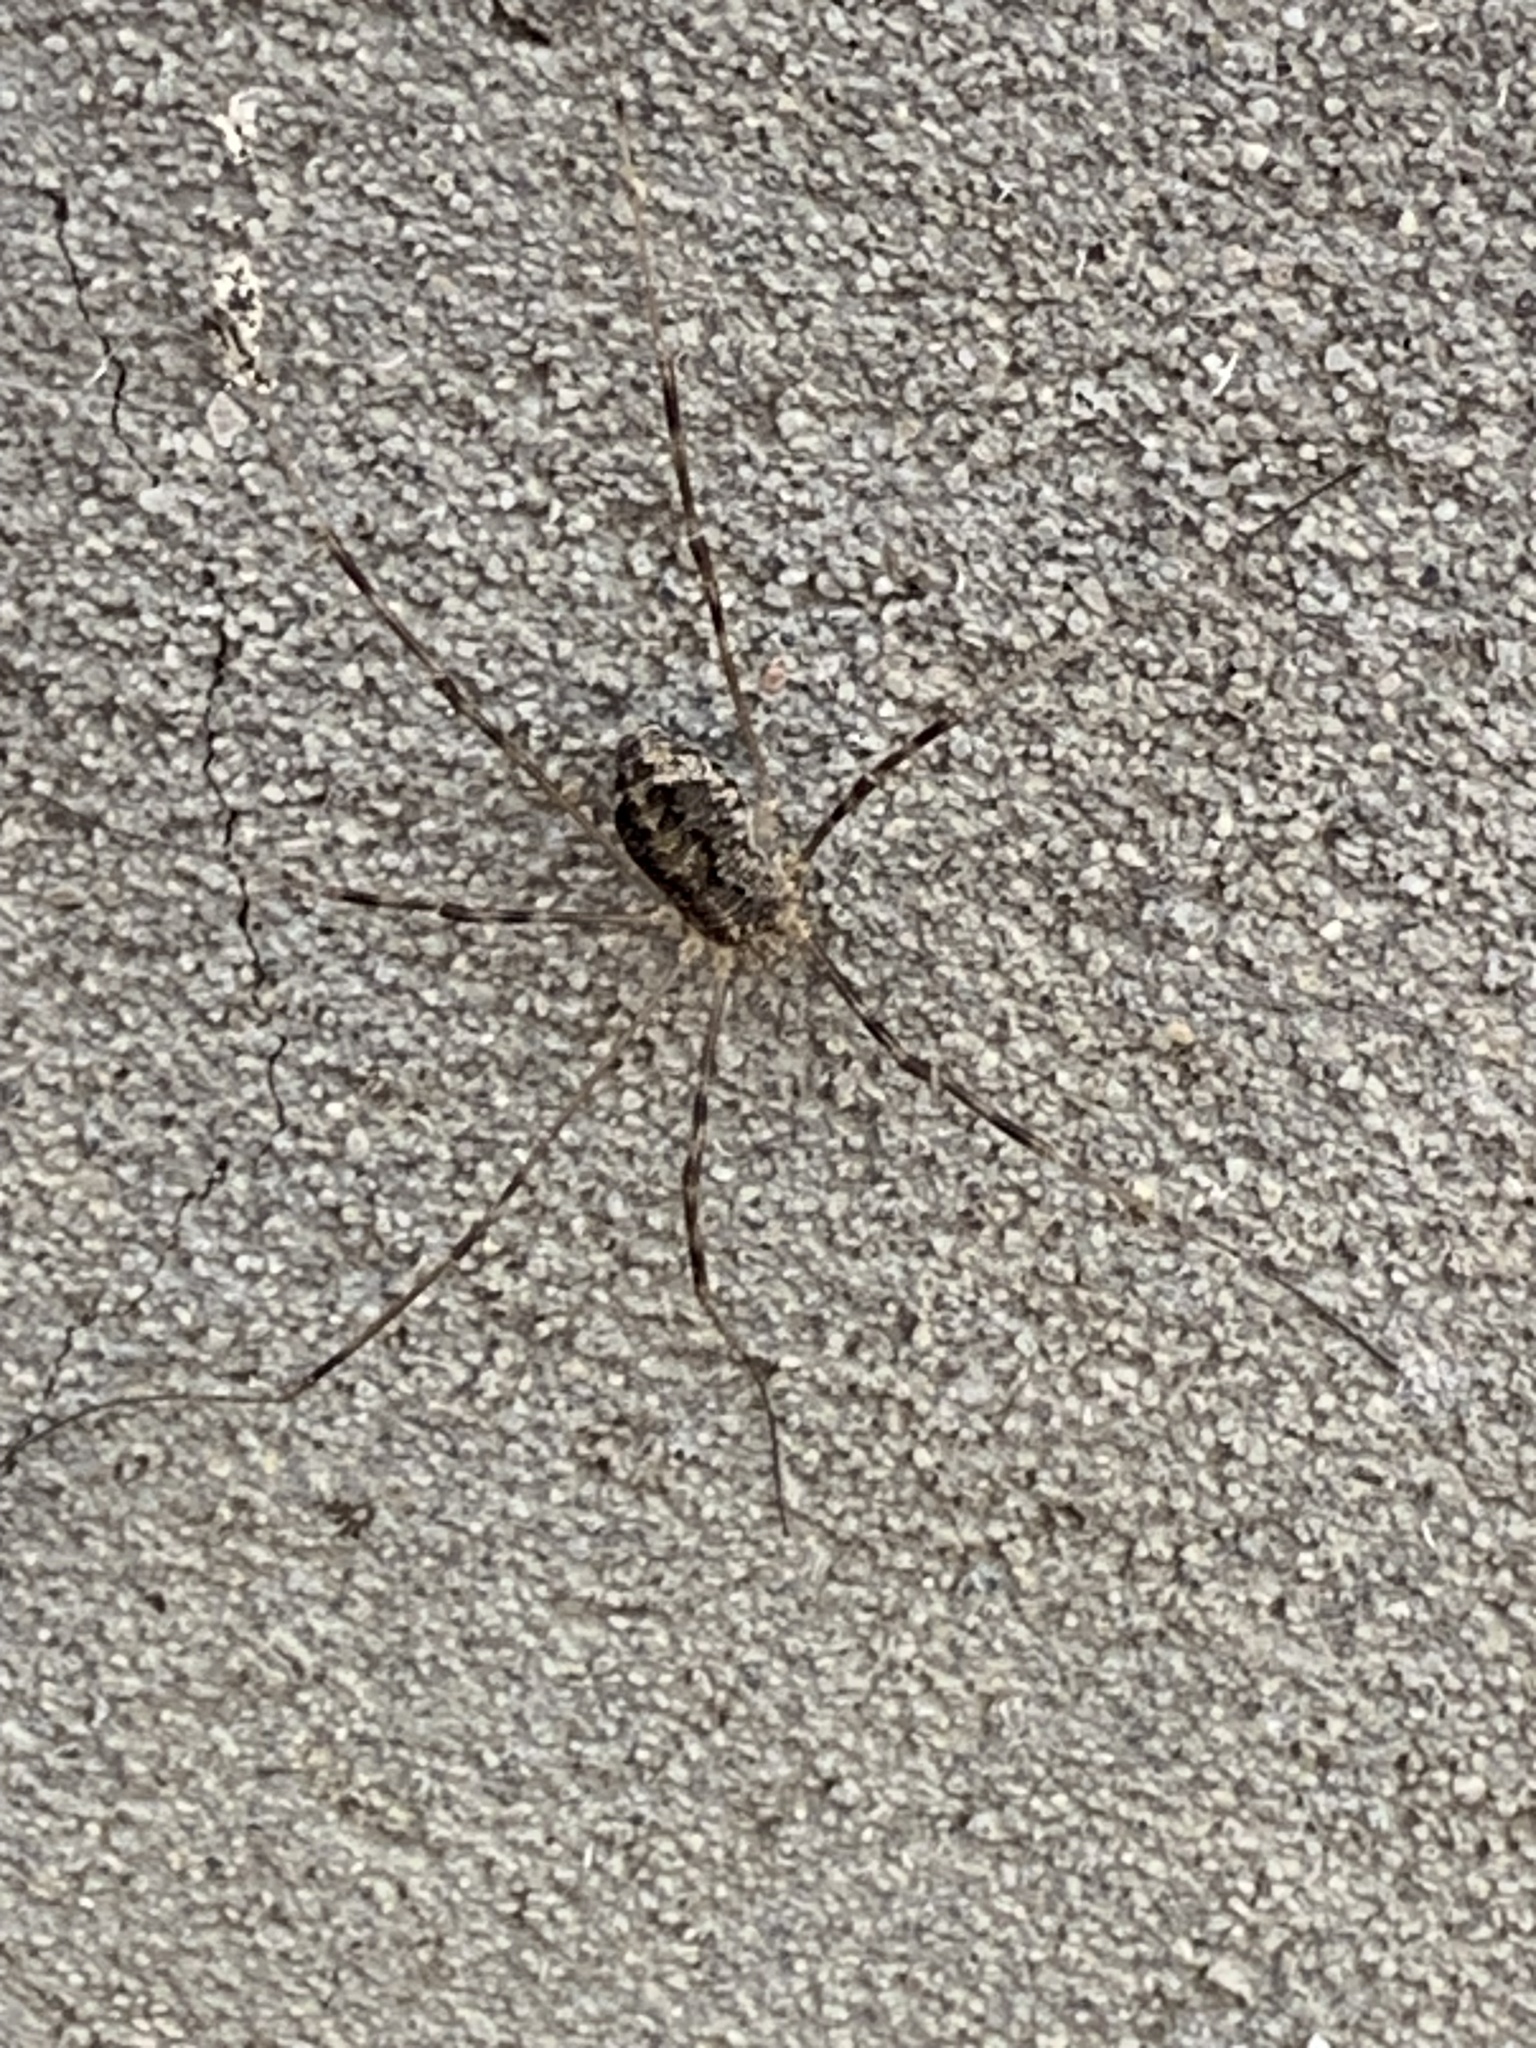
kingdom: Animalia
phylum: Arthropoda
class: Arachnida
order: Opiliones
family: Phalangiidae
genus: Opilio
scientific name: Opilio parietinus
